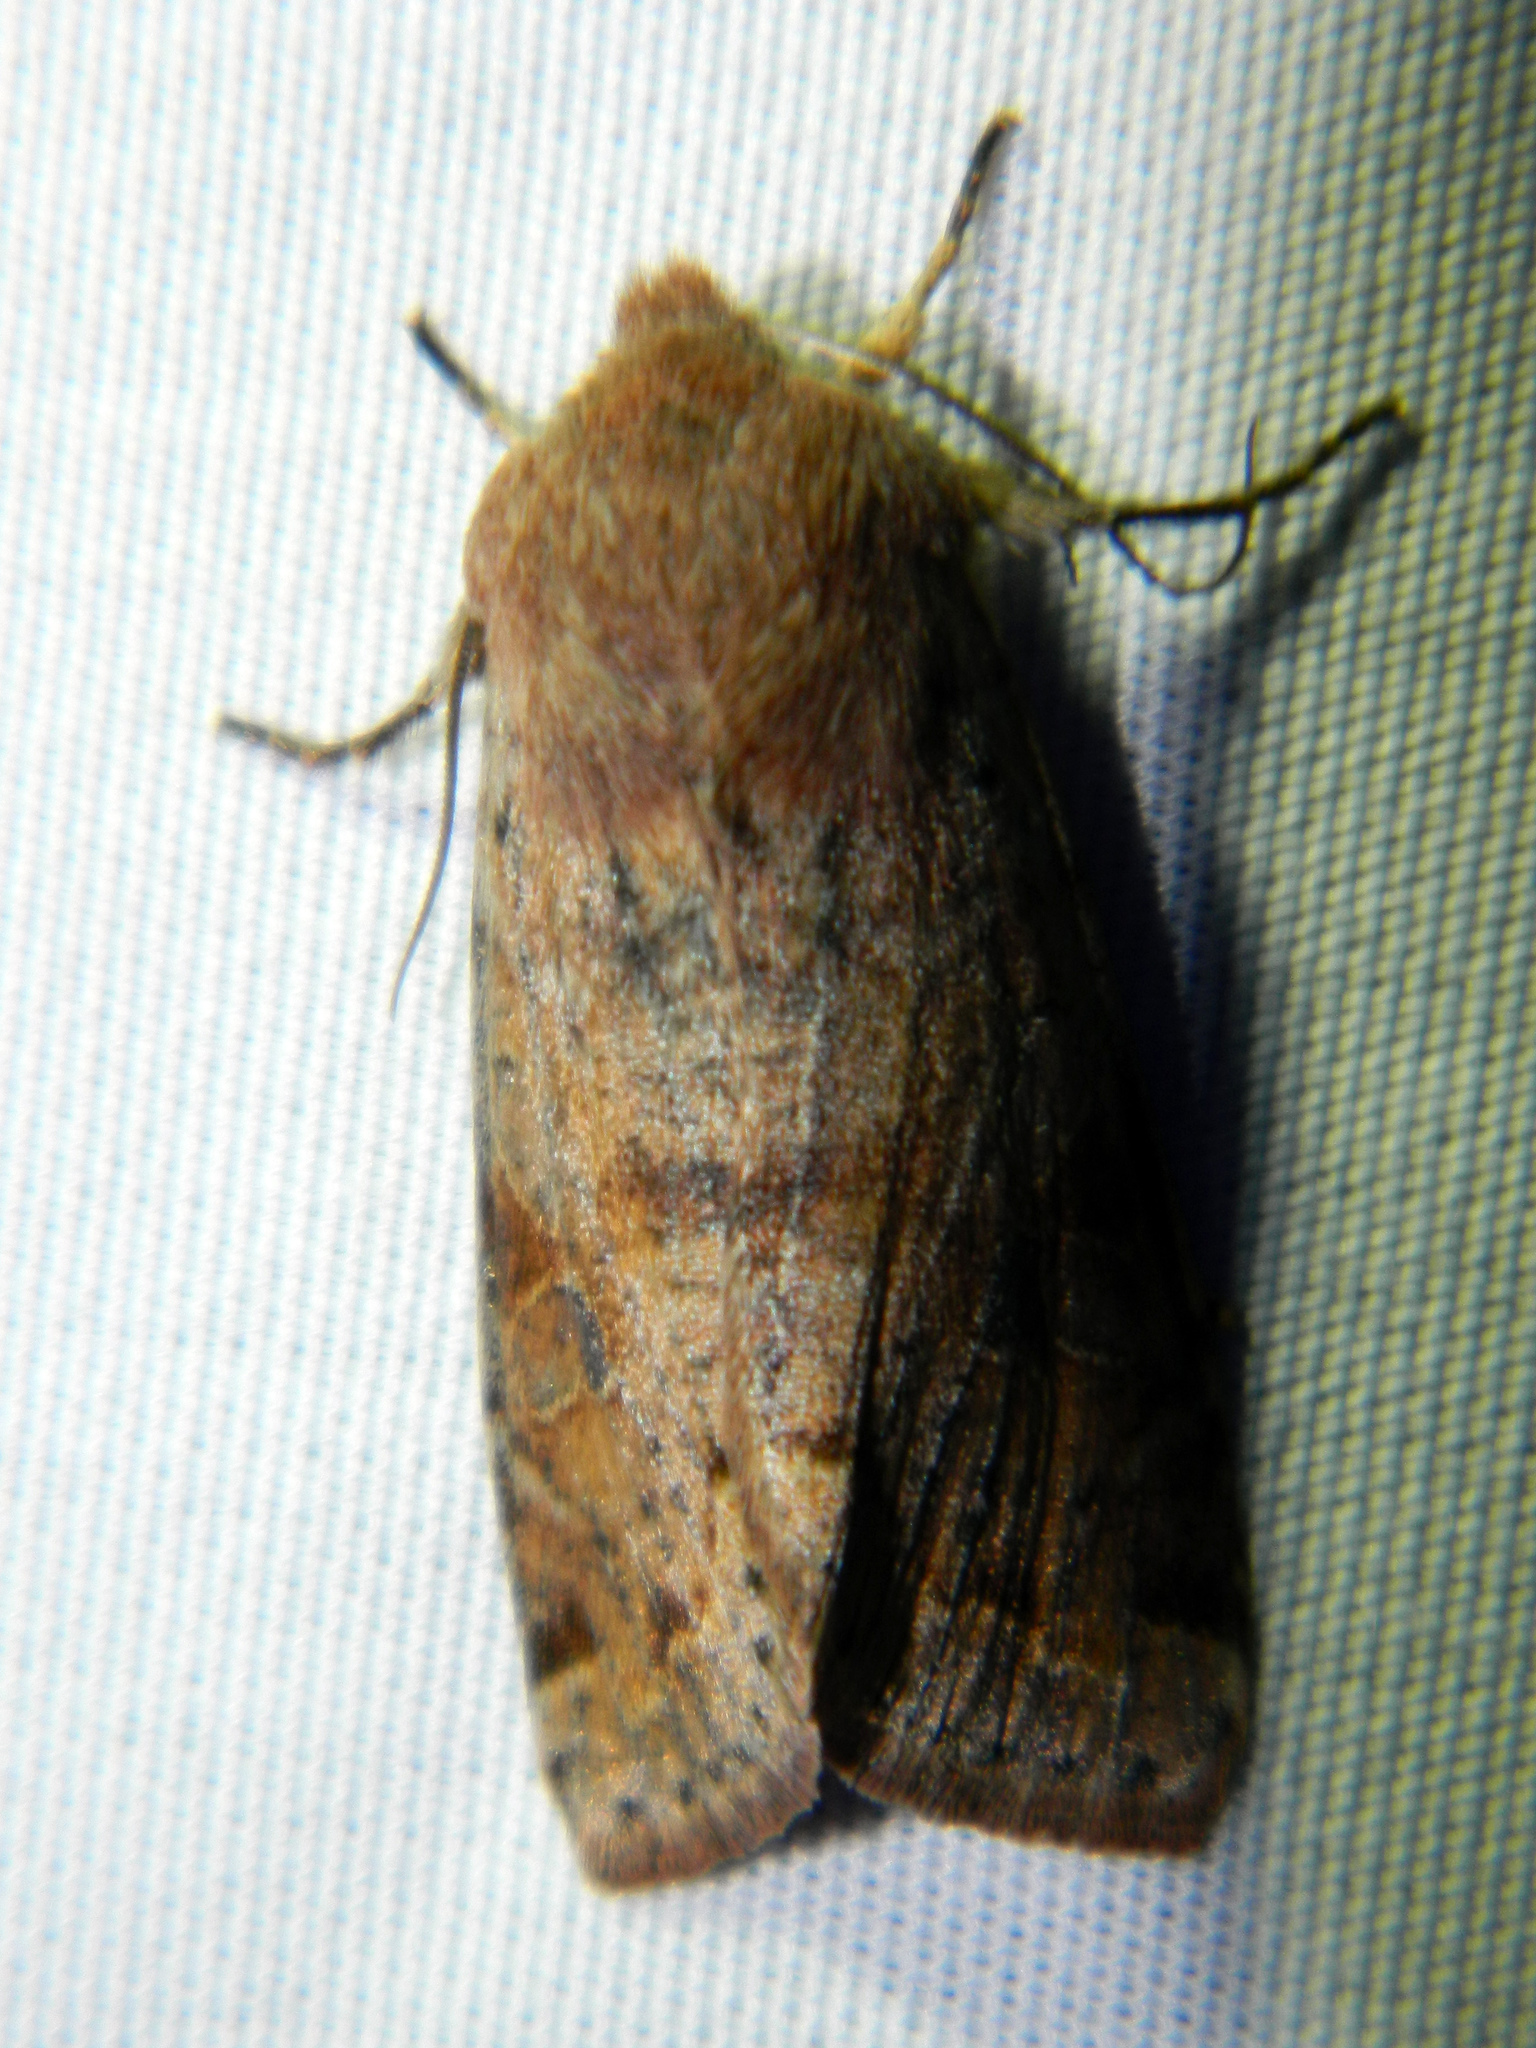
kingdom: Animalia
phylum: Arthropoda
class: Insecta
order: Lepidoptera
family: Noctuidae
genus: Orthosia
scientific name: Orthosia hibisci
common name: Green fruitworm
